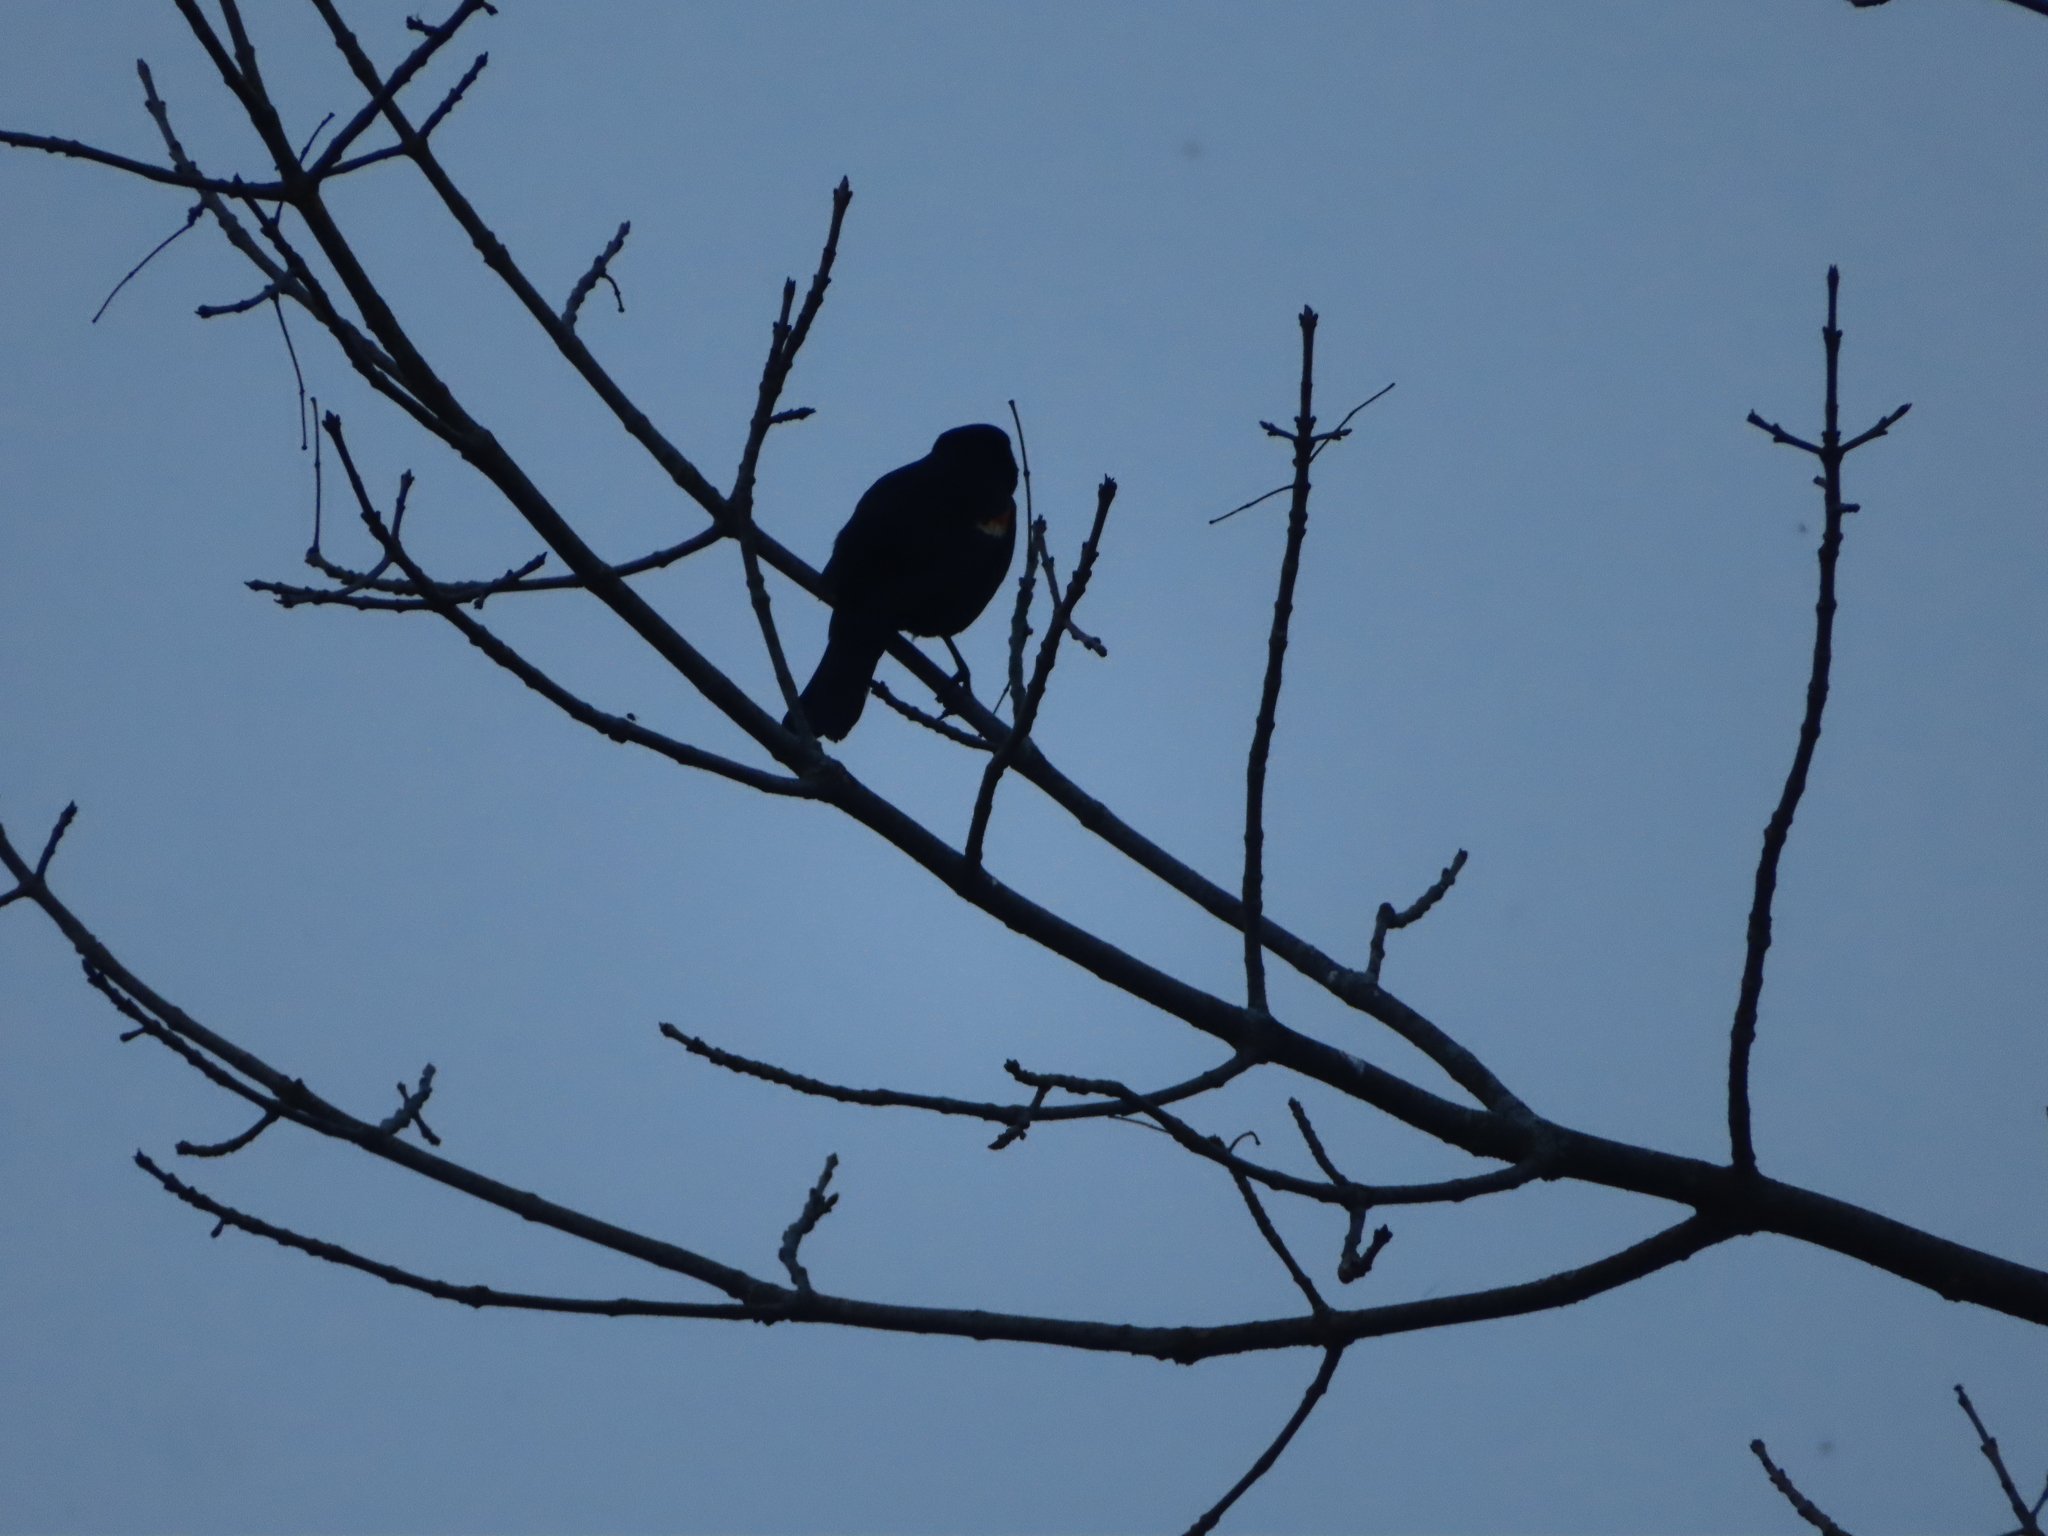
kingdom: Animalia
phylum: Chordata
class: Aves
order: Passeriformes
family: Icteridae
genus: Agelaius
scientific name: Agelaius phoeniceus
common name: Red-winged blackbird
